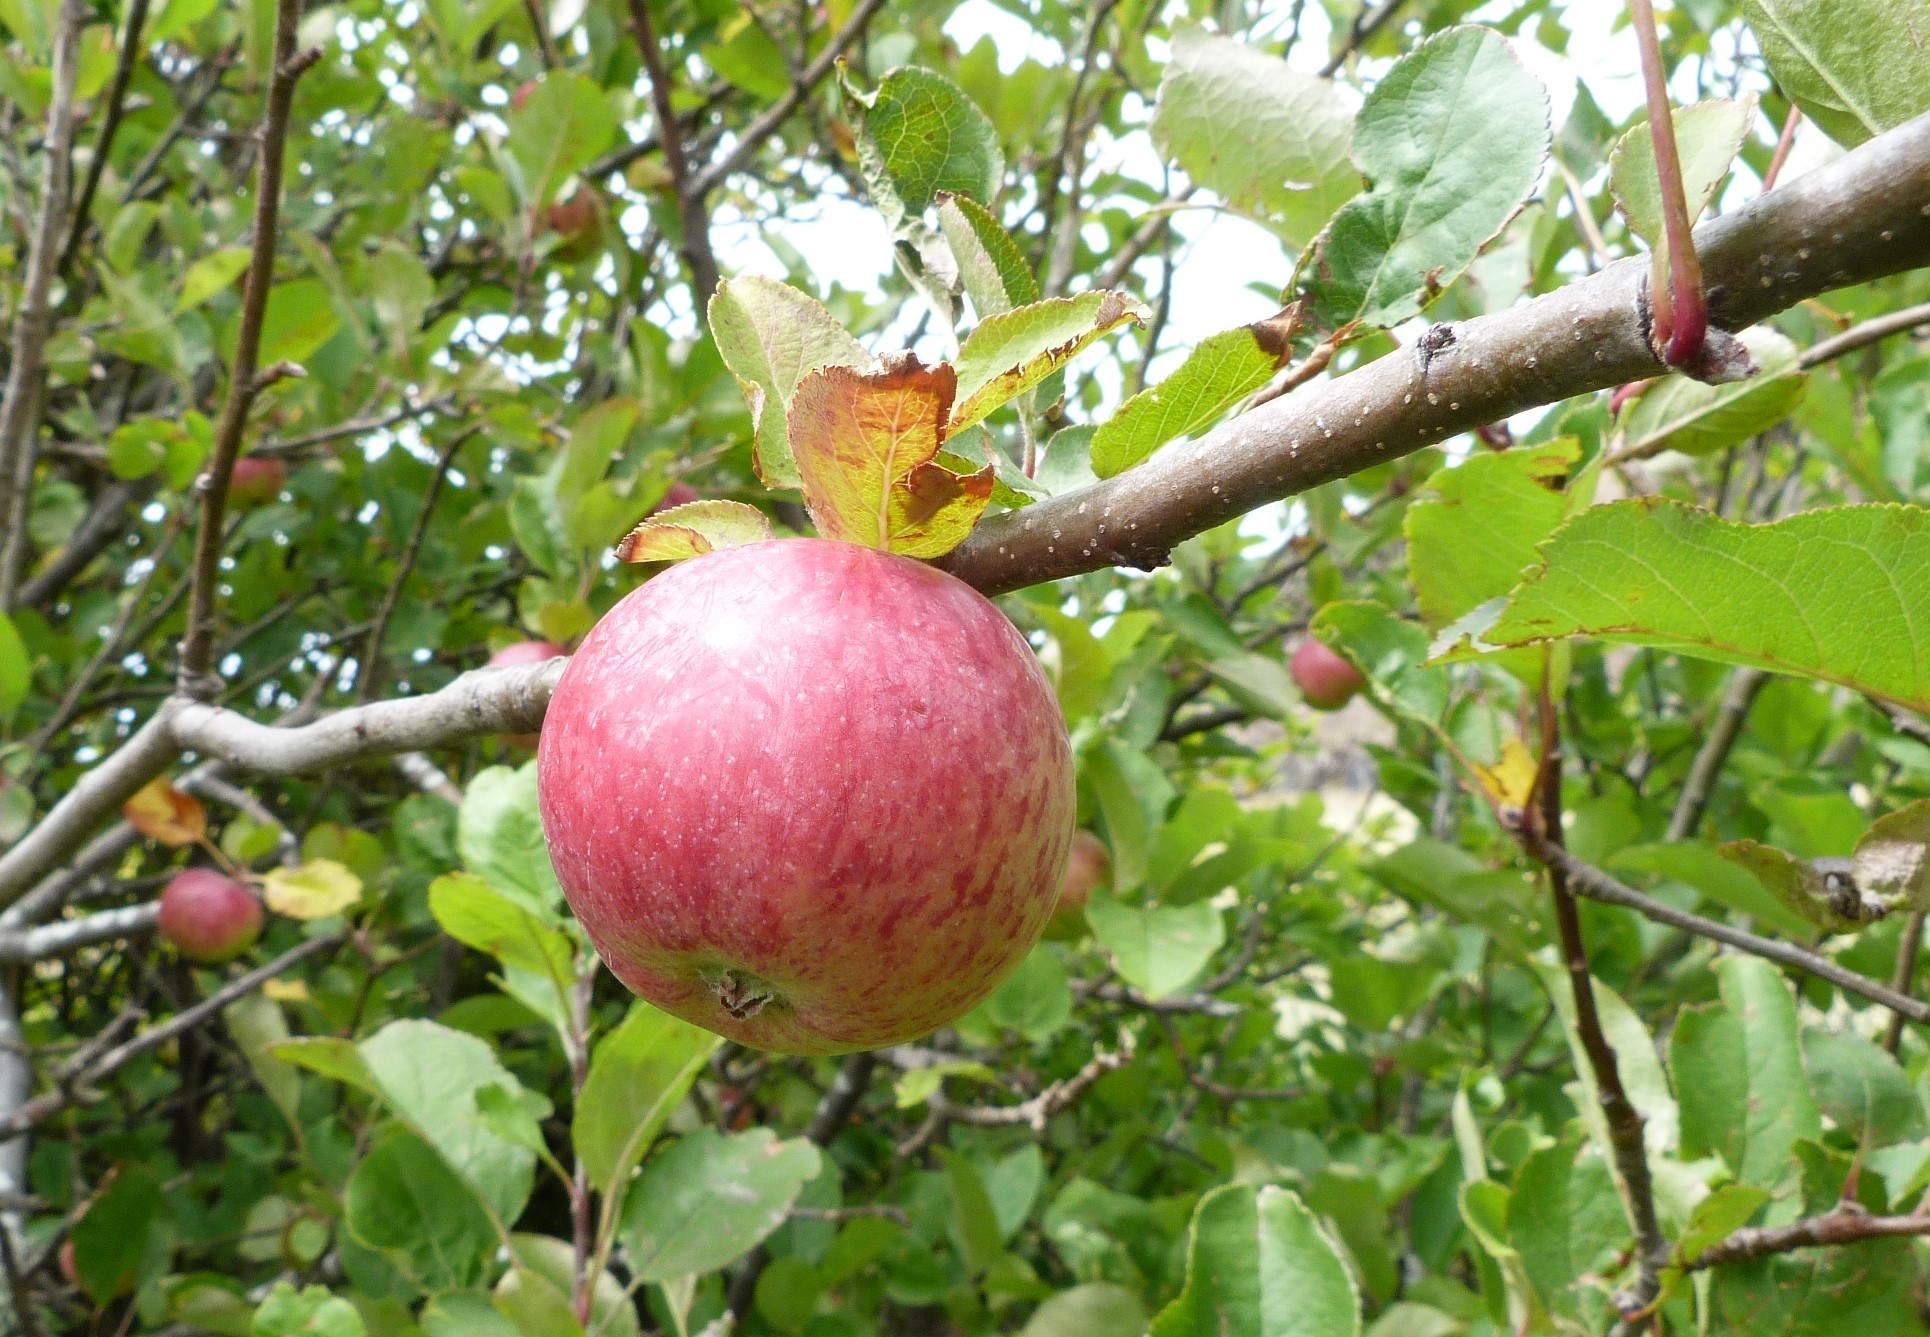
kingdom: Plantae
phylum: Tracheophyta
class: Magnoliopsida
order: Rosales
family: Rosaceae
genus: Malus
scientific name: Malus domestica
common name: Apple
